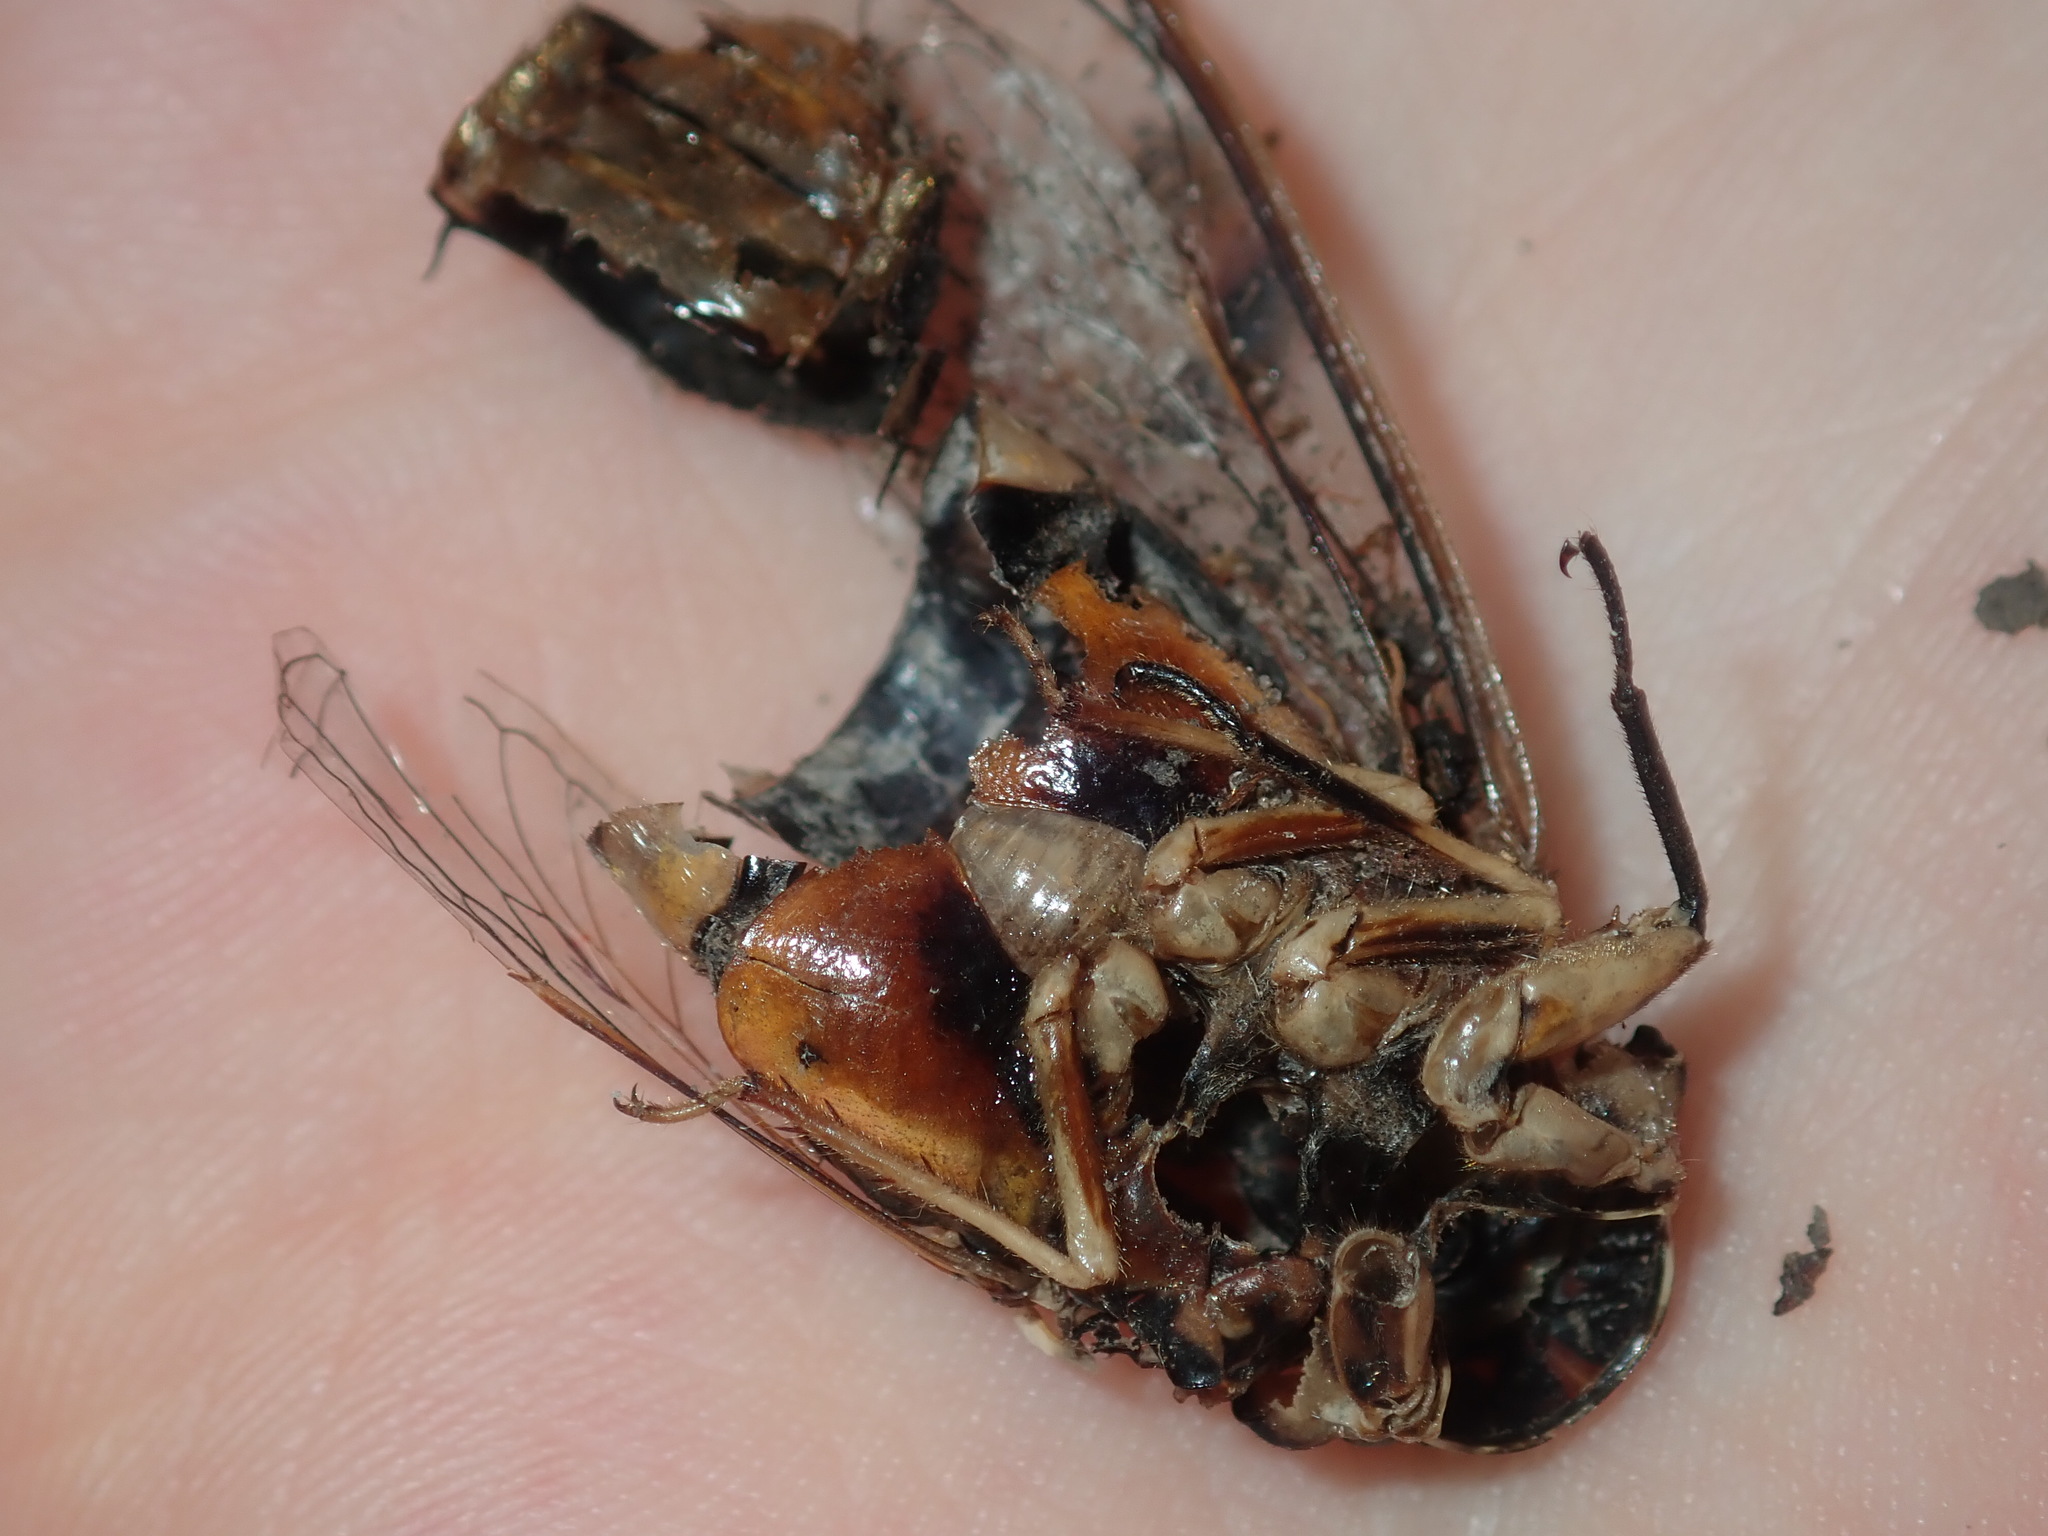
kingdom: Animalia
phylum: Arthropoda
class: Insecta
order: Hemiptera
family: Cicadidae
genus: Psaltoda
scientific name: Psaltoda harrisii
